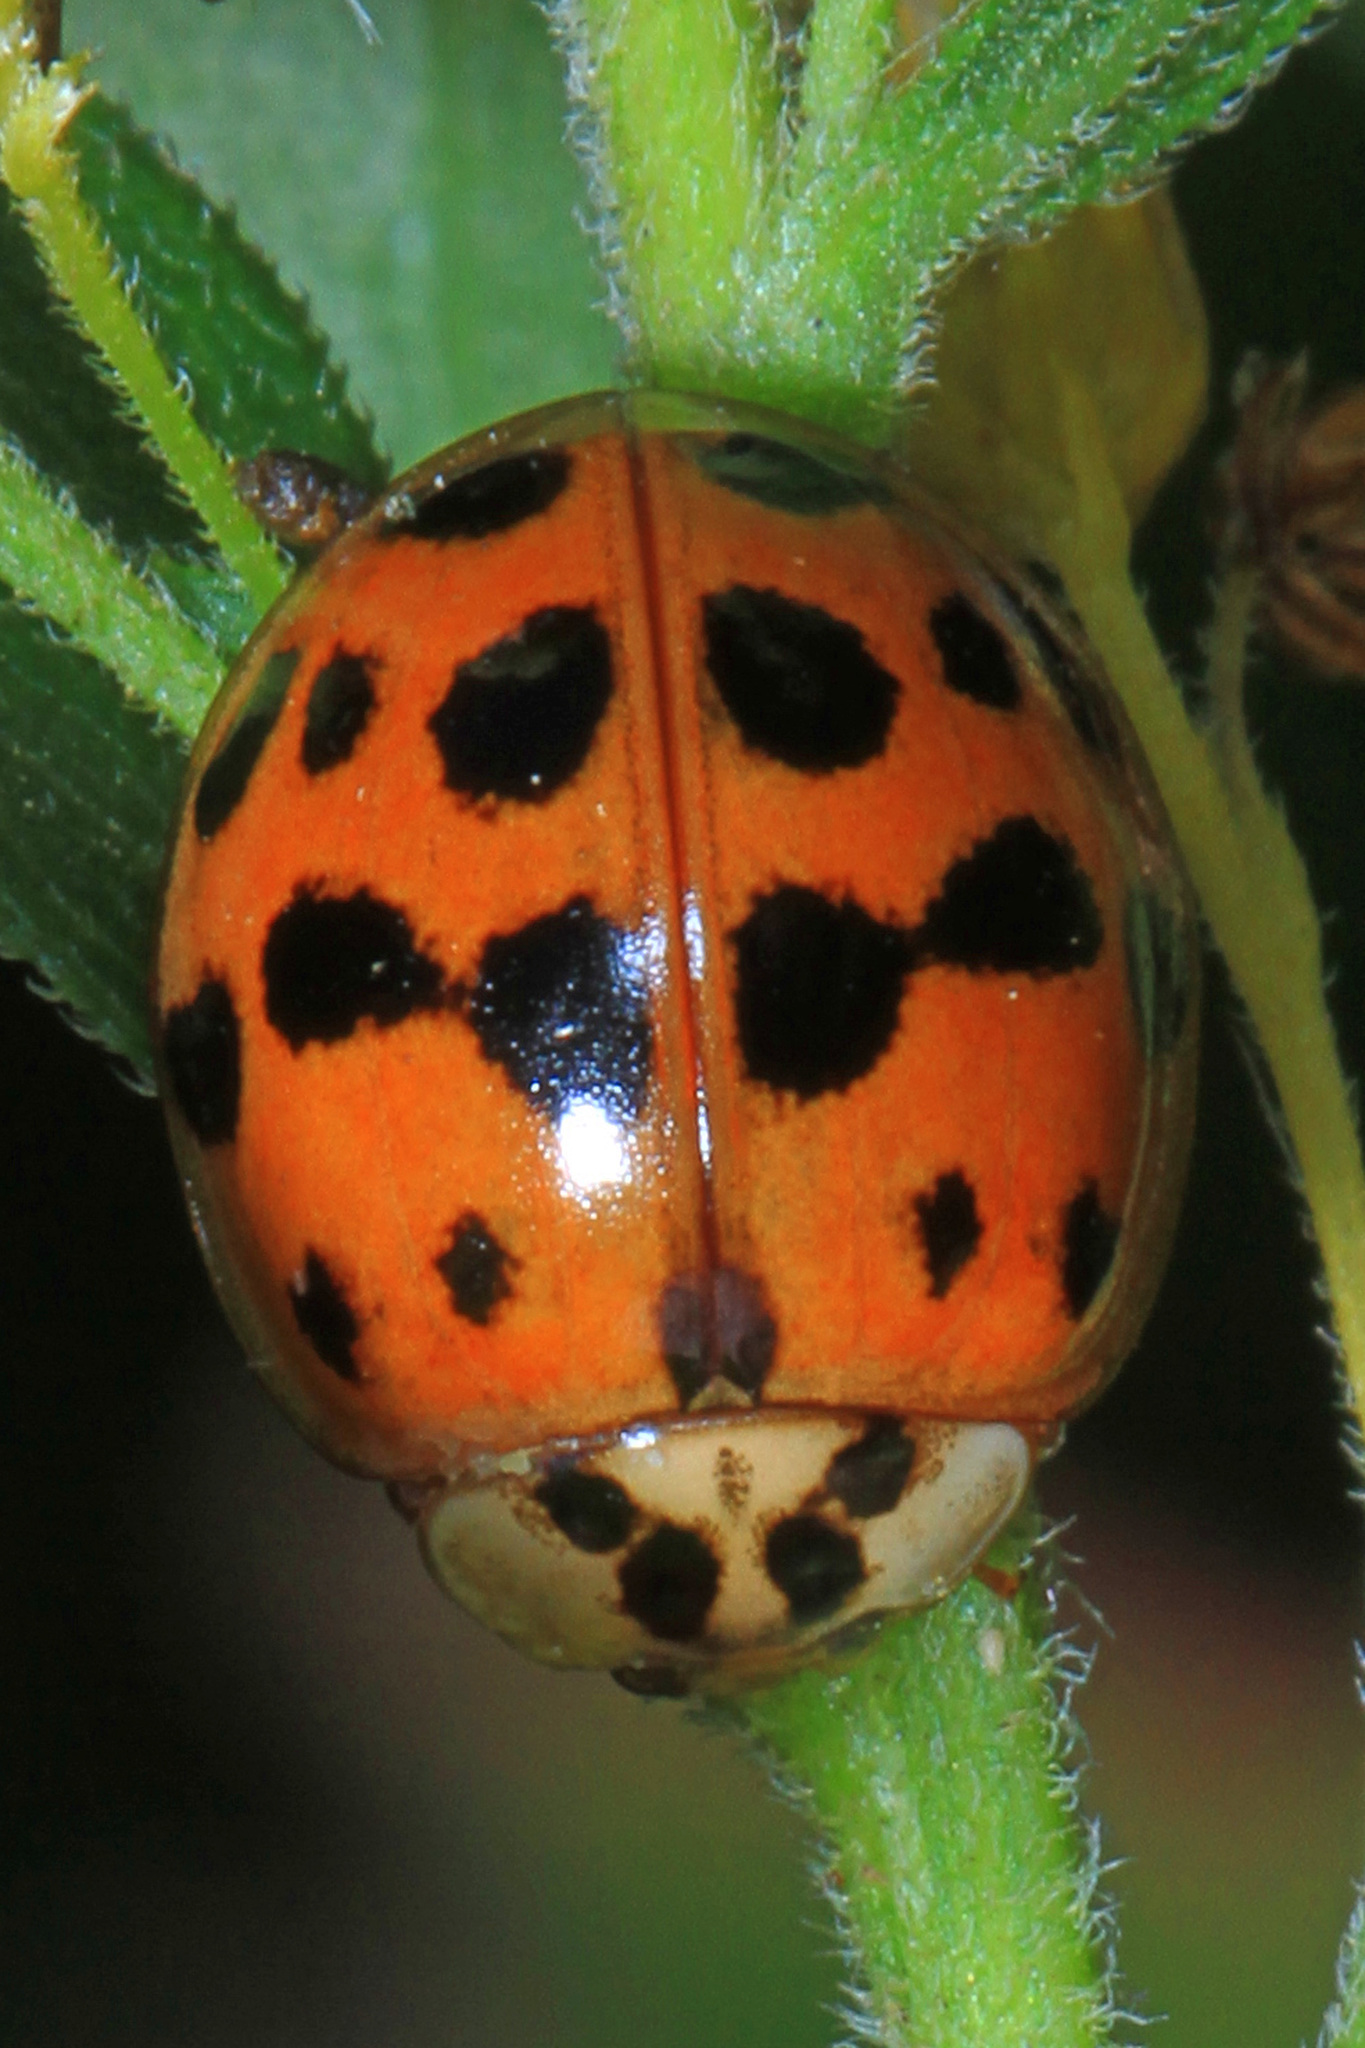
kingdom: Animalia
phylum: Arthropoda
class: Insecta
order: Coleoptera
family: Coccinellidae
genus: Harmonia
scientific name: Harmonia axyridis
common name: Harlequin ladybird
